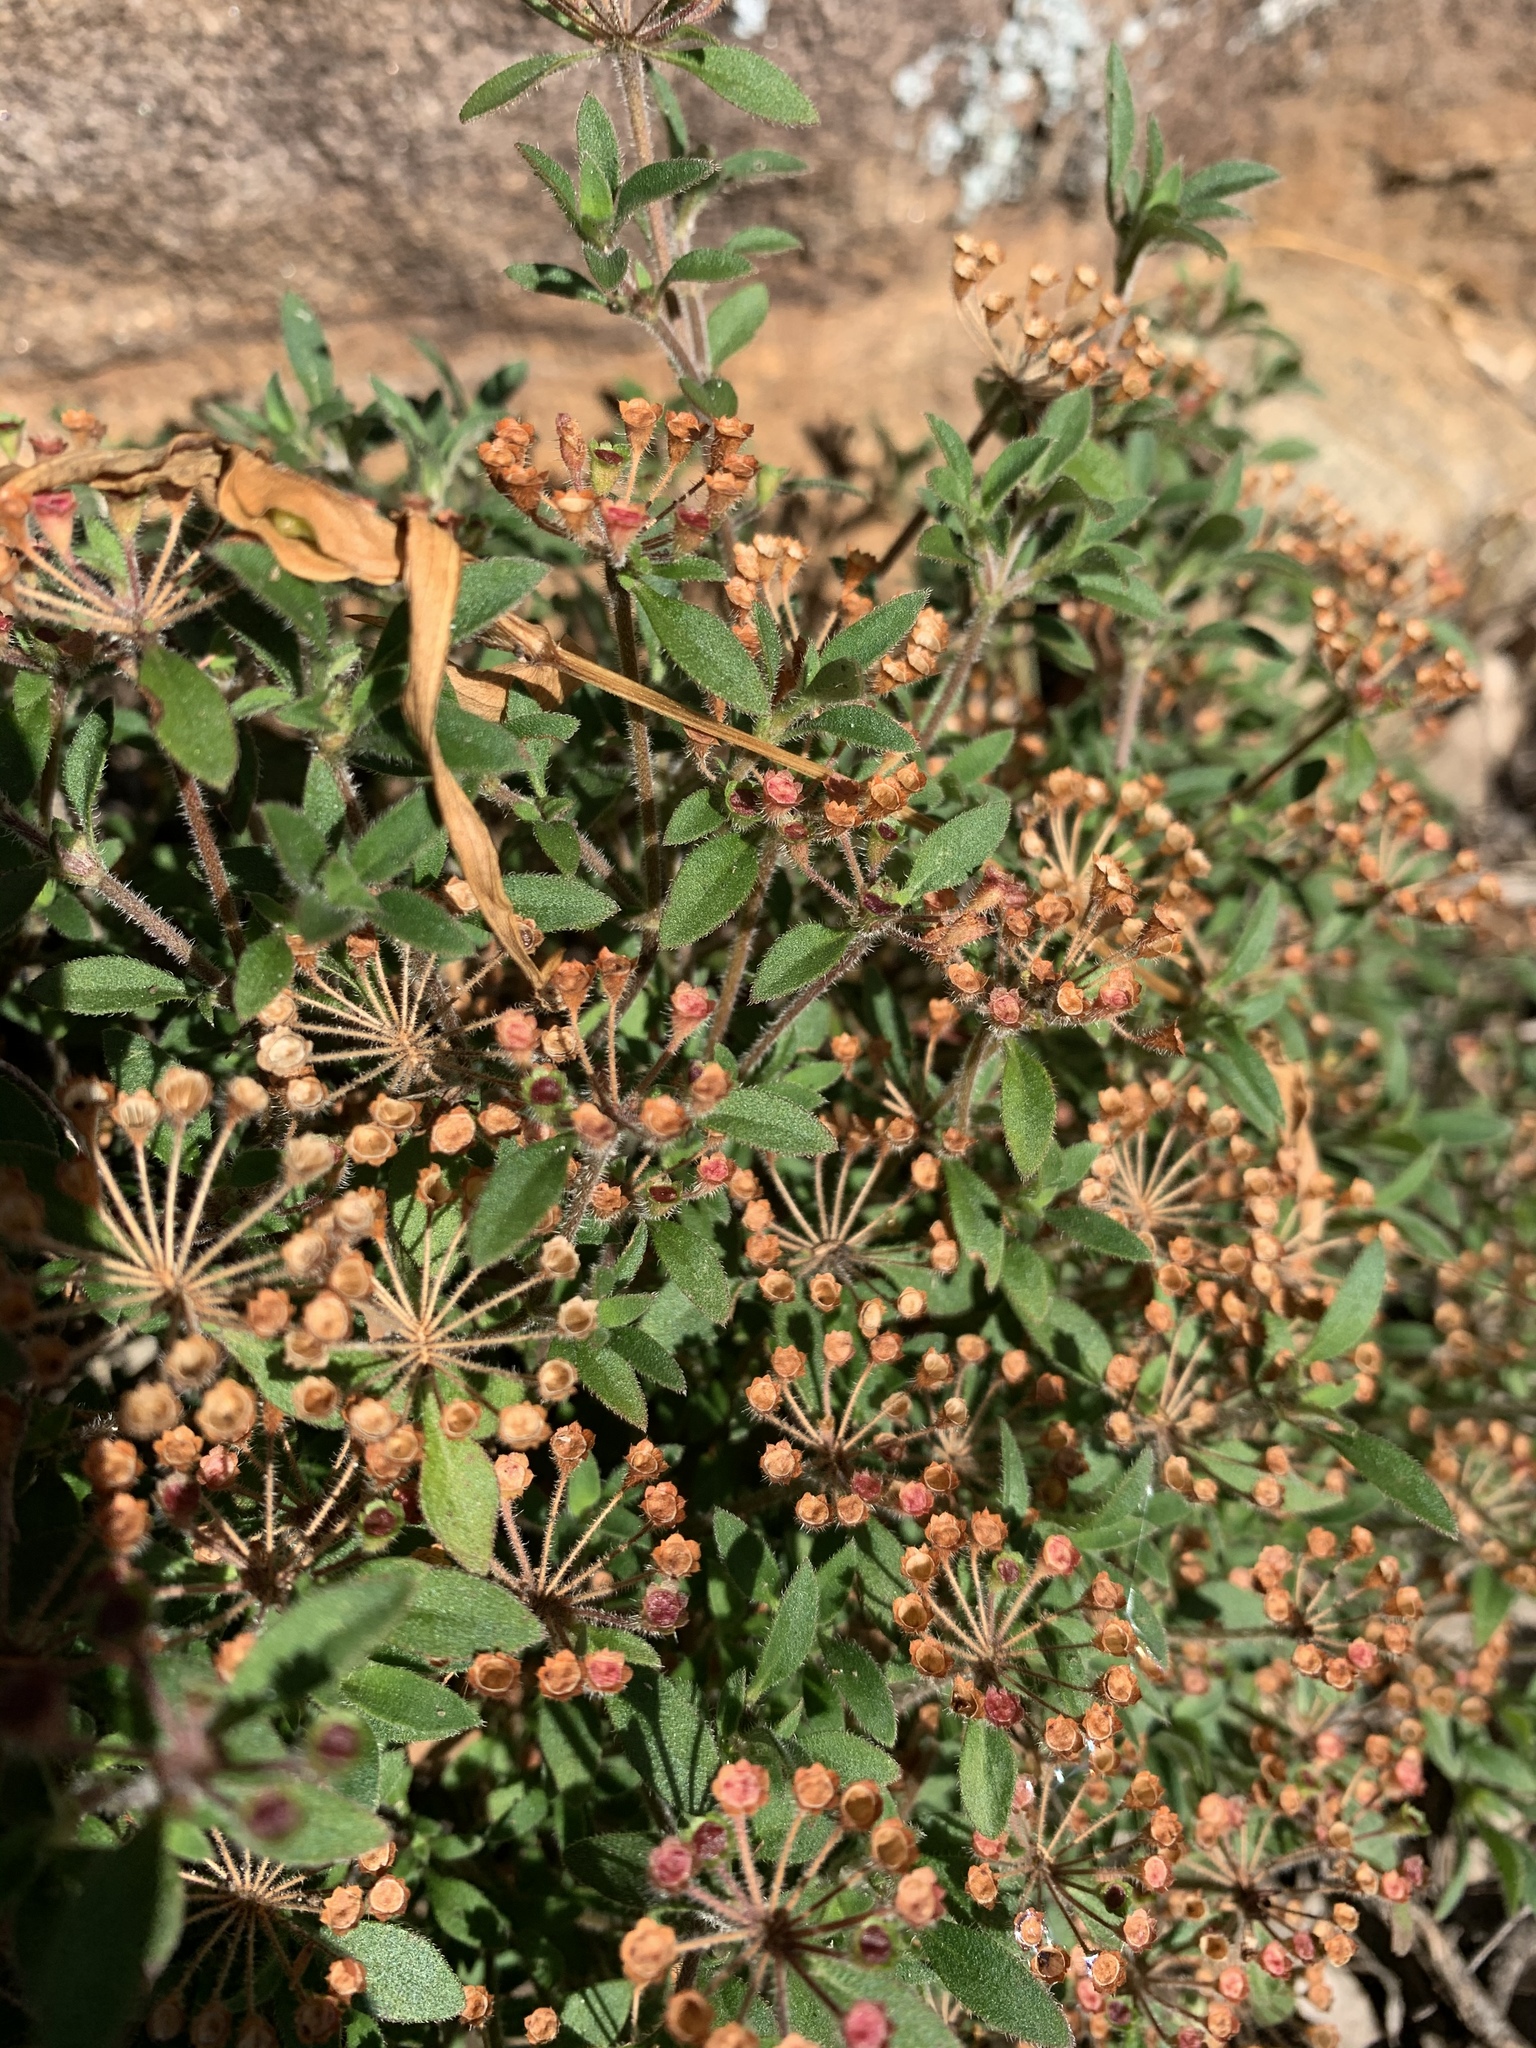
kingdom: Plantae
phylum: Tracheophyta
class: Magnoliopsida
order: Gentianales
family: Rubiaceae
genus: Pomax
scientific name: Pomax umbellata
